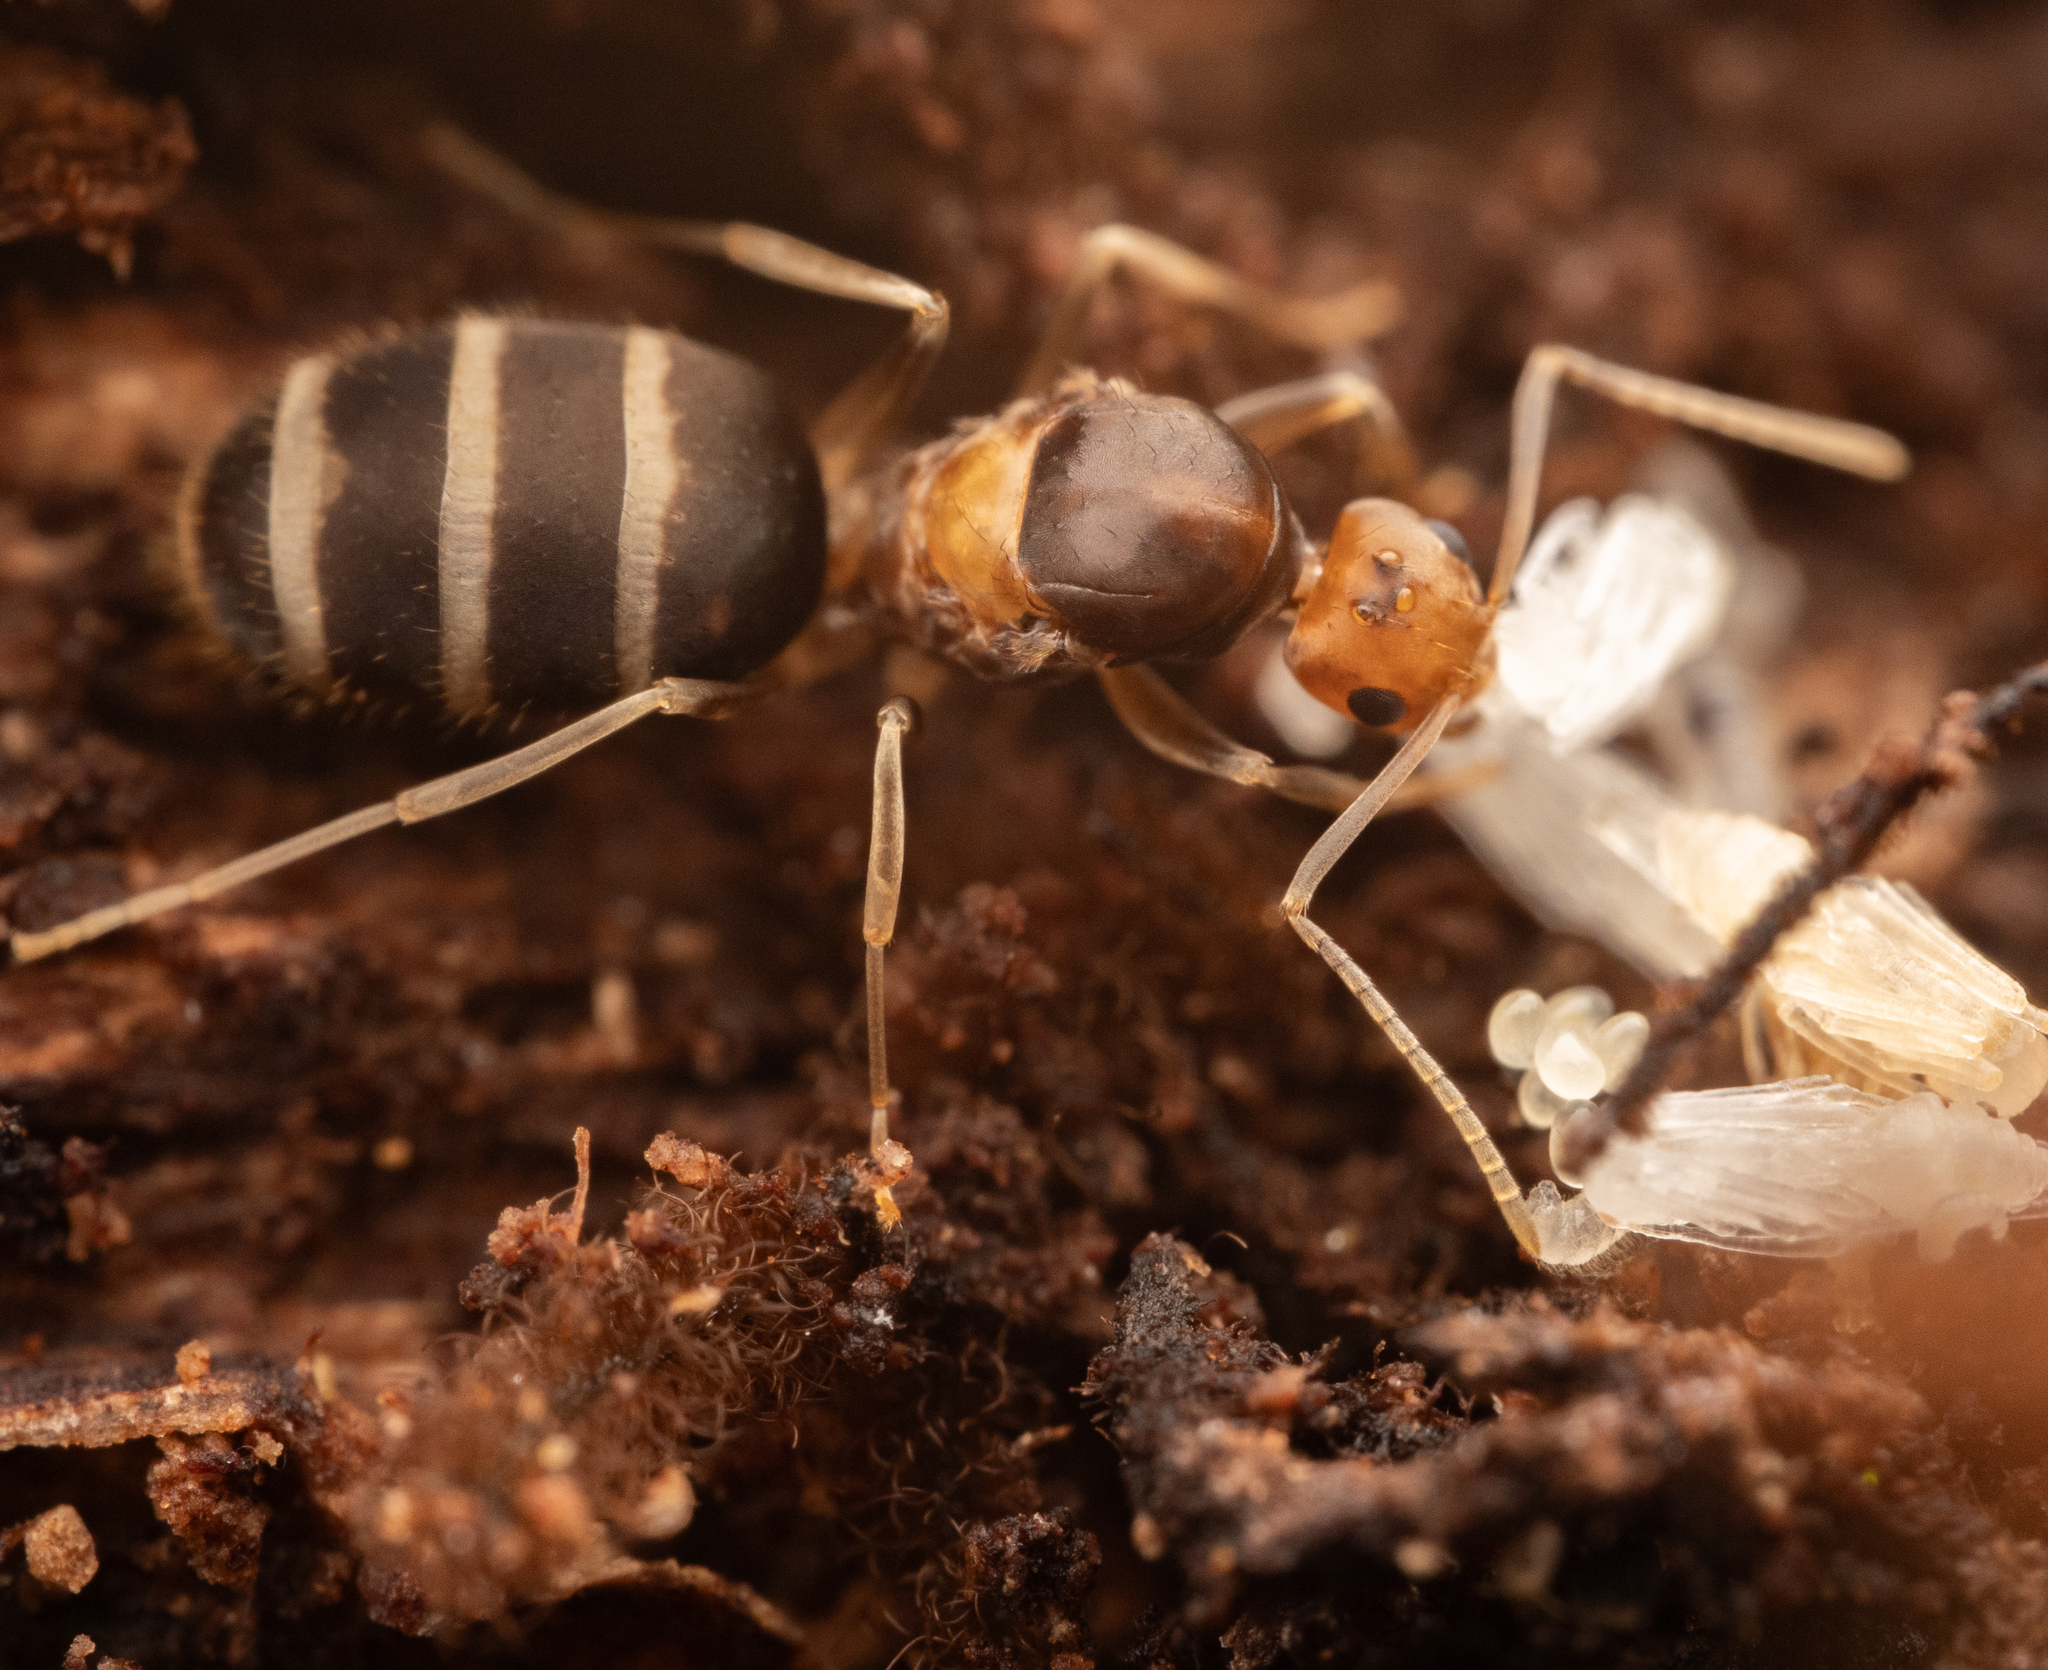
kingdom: Animalia
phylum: Arthropoda
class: Insecta
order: Hymenoptera
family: Formicidae
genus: Paraparatrechina
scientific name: Paraparatrechina pallida
